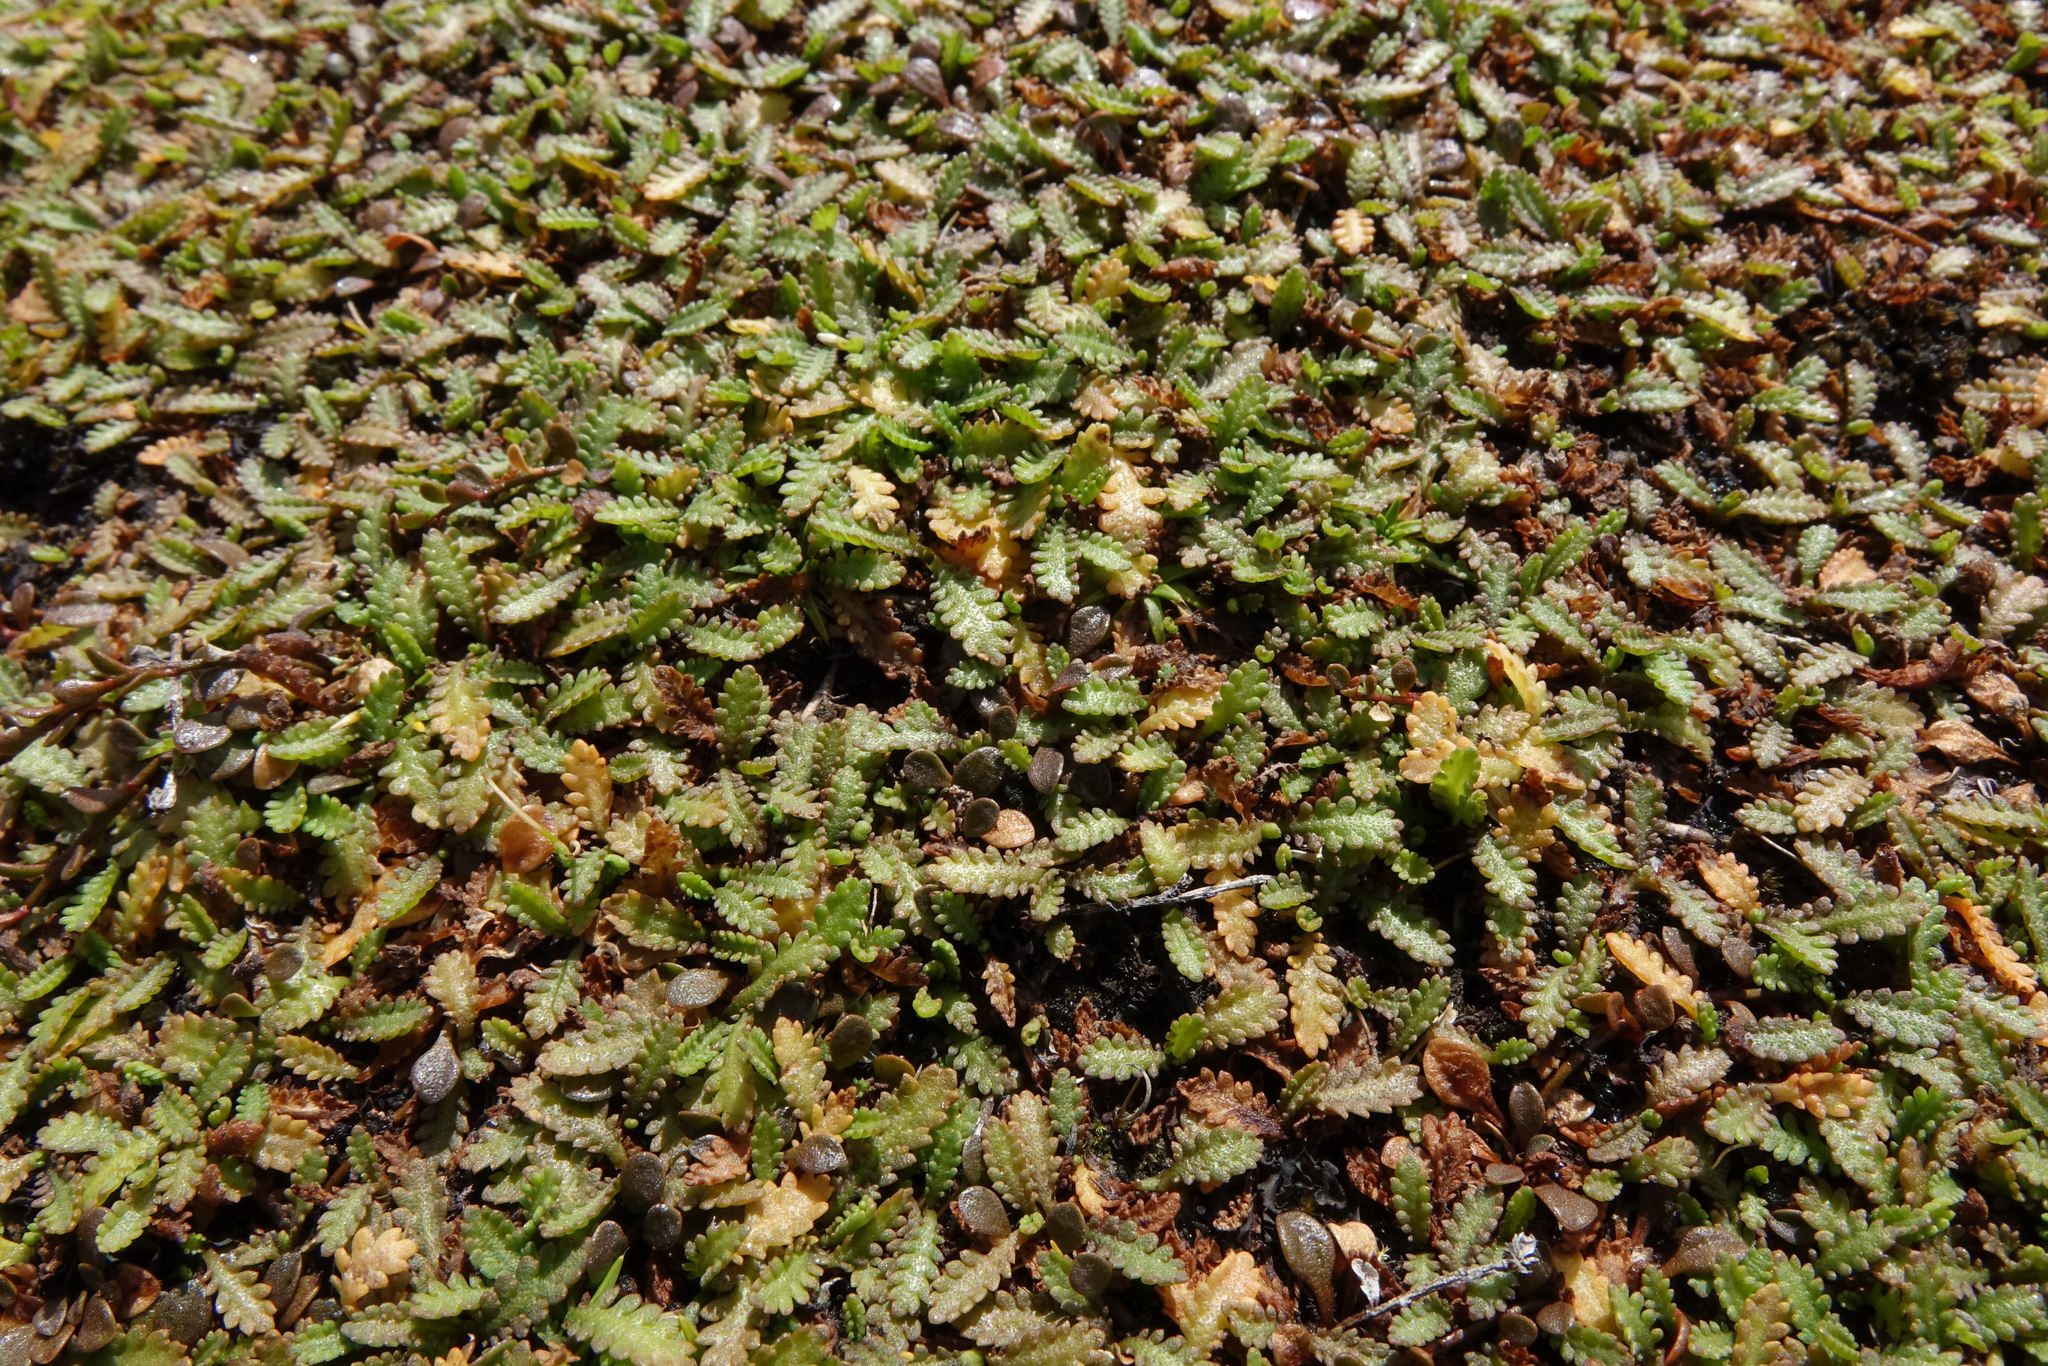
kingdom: Plantae
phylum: Tracheophyta
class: Magnoliopsida
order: Asterales
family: Asteraceae
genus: Leptinella
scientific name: Leptinella dioica
